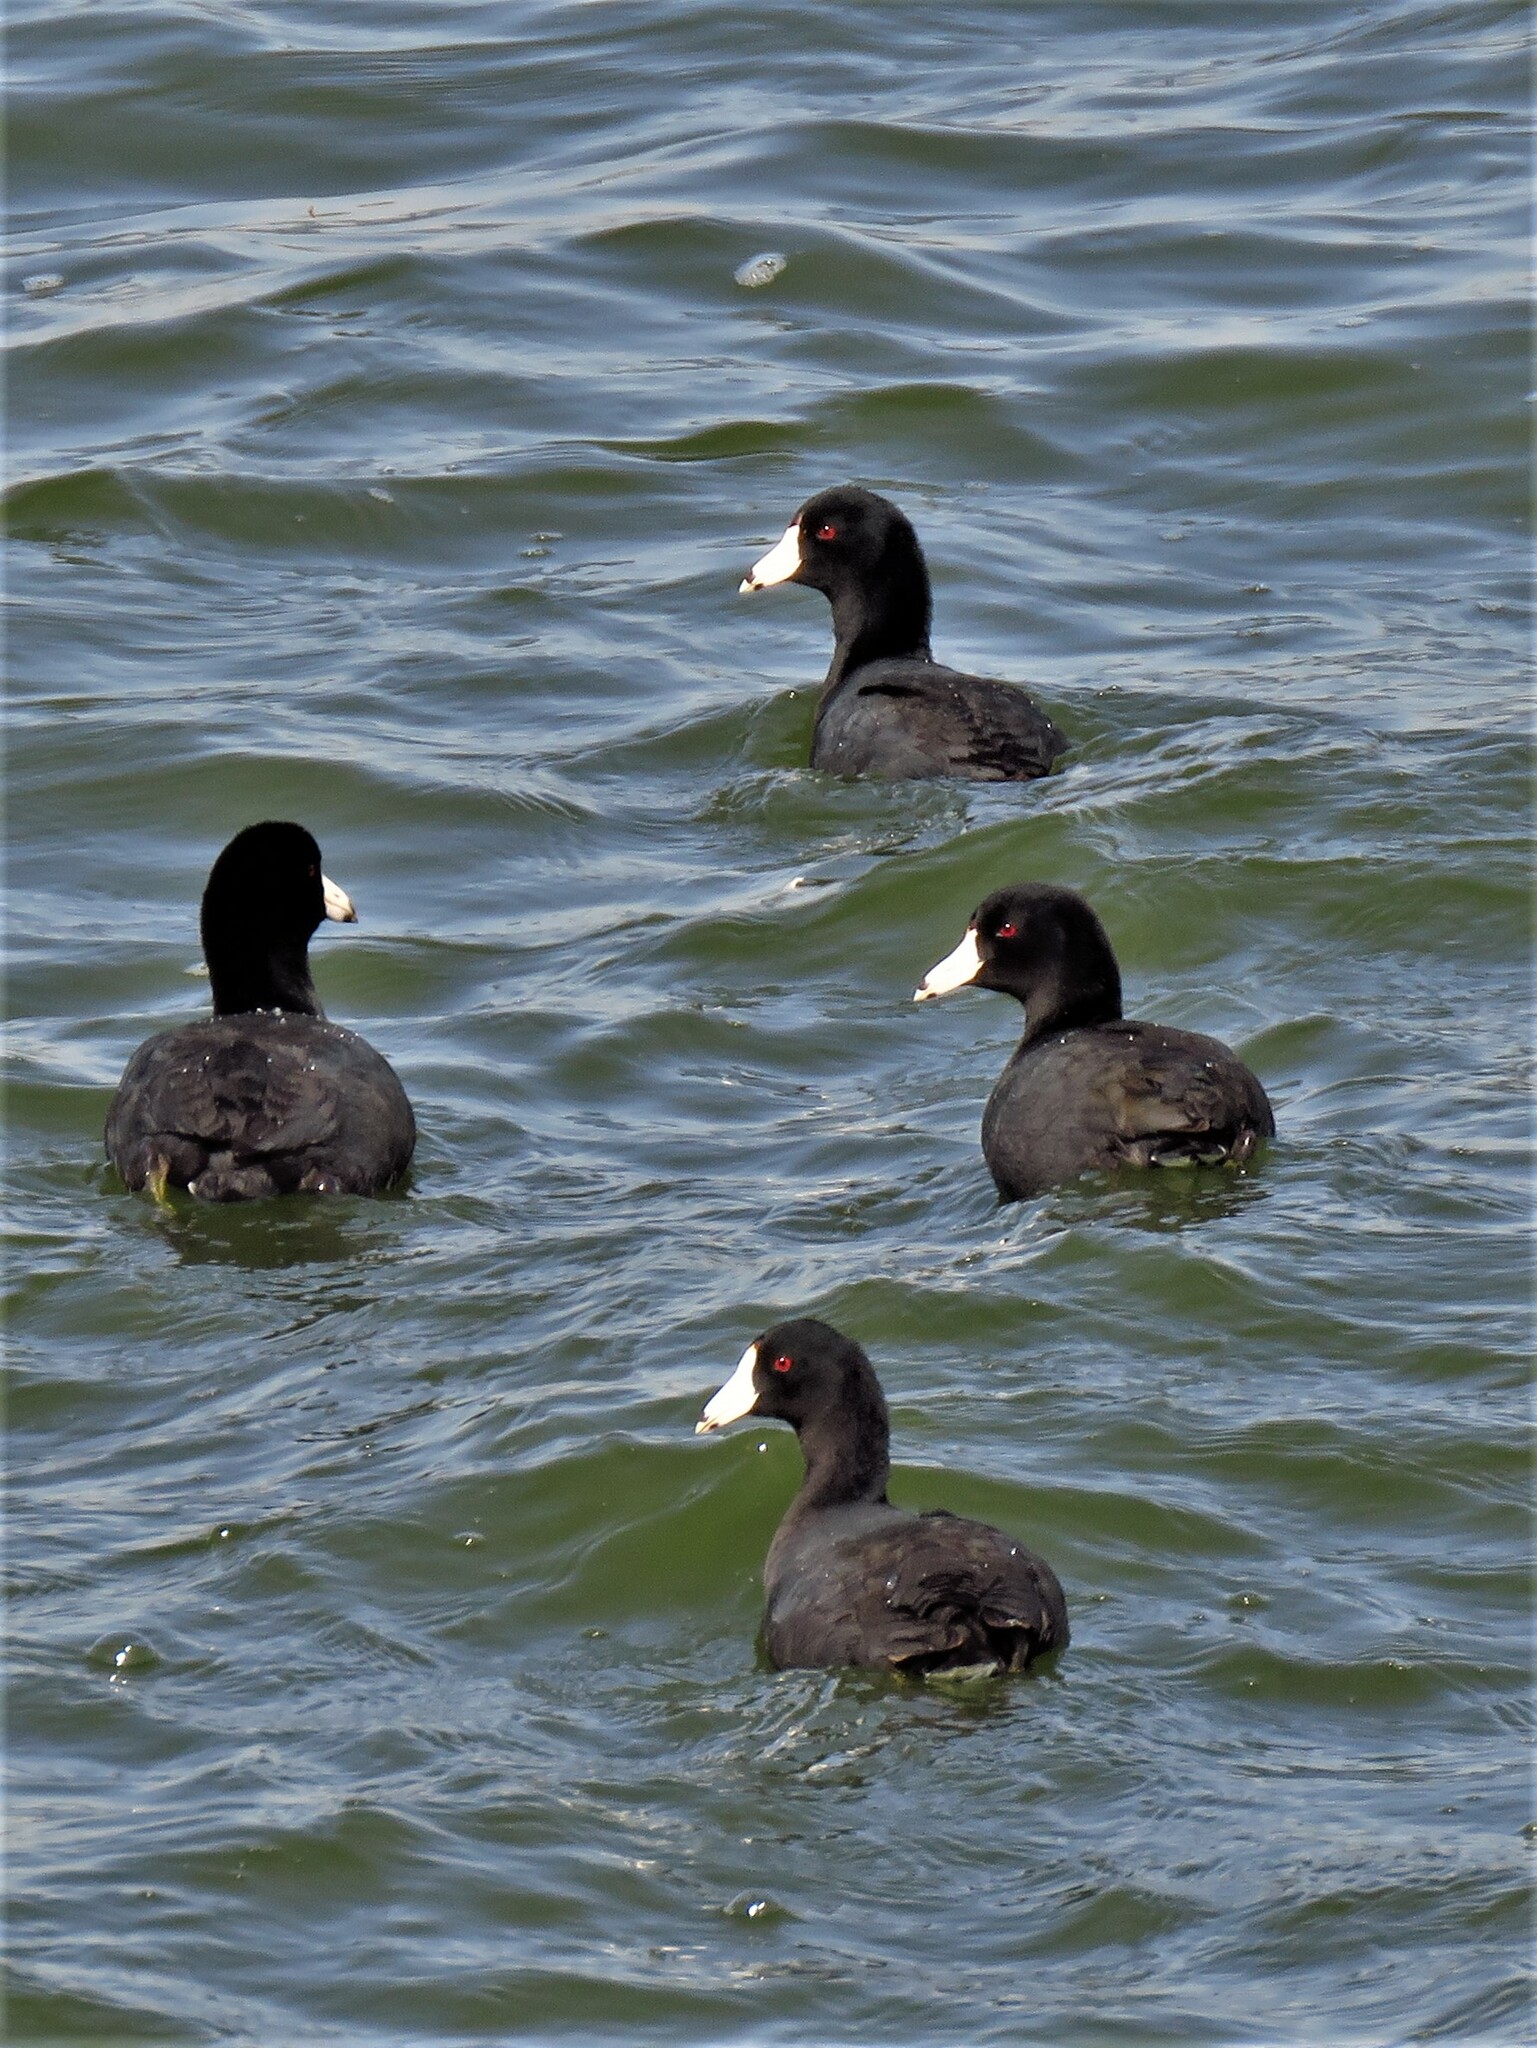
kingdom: Animalia
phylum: Chordata
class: Aves
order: Gruiformes
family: Rallidae
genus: Fulica
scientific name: Fulica americana
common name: American coot
